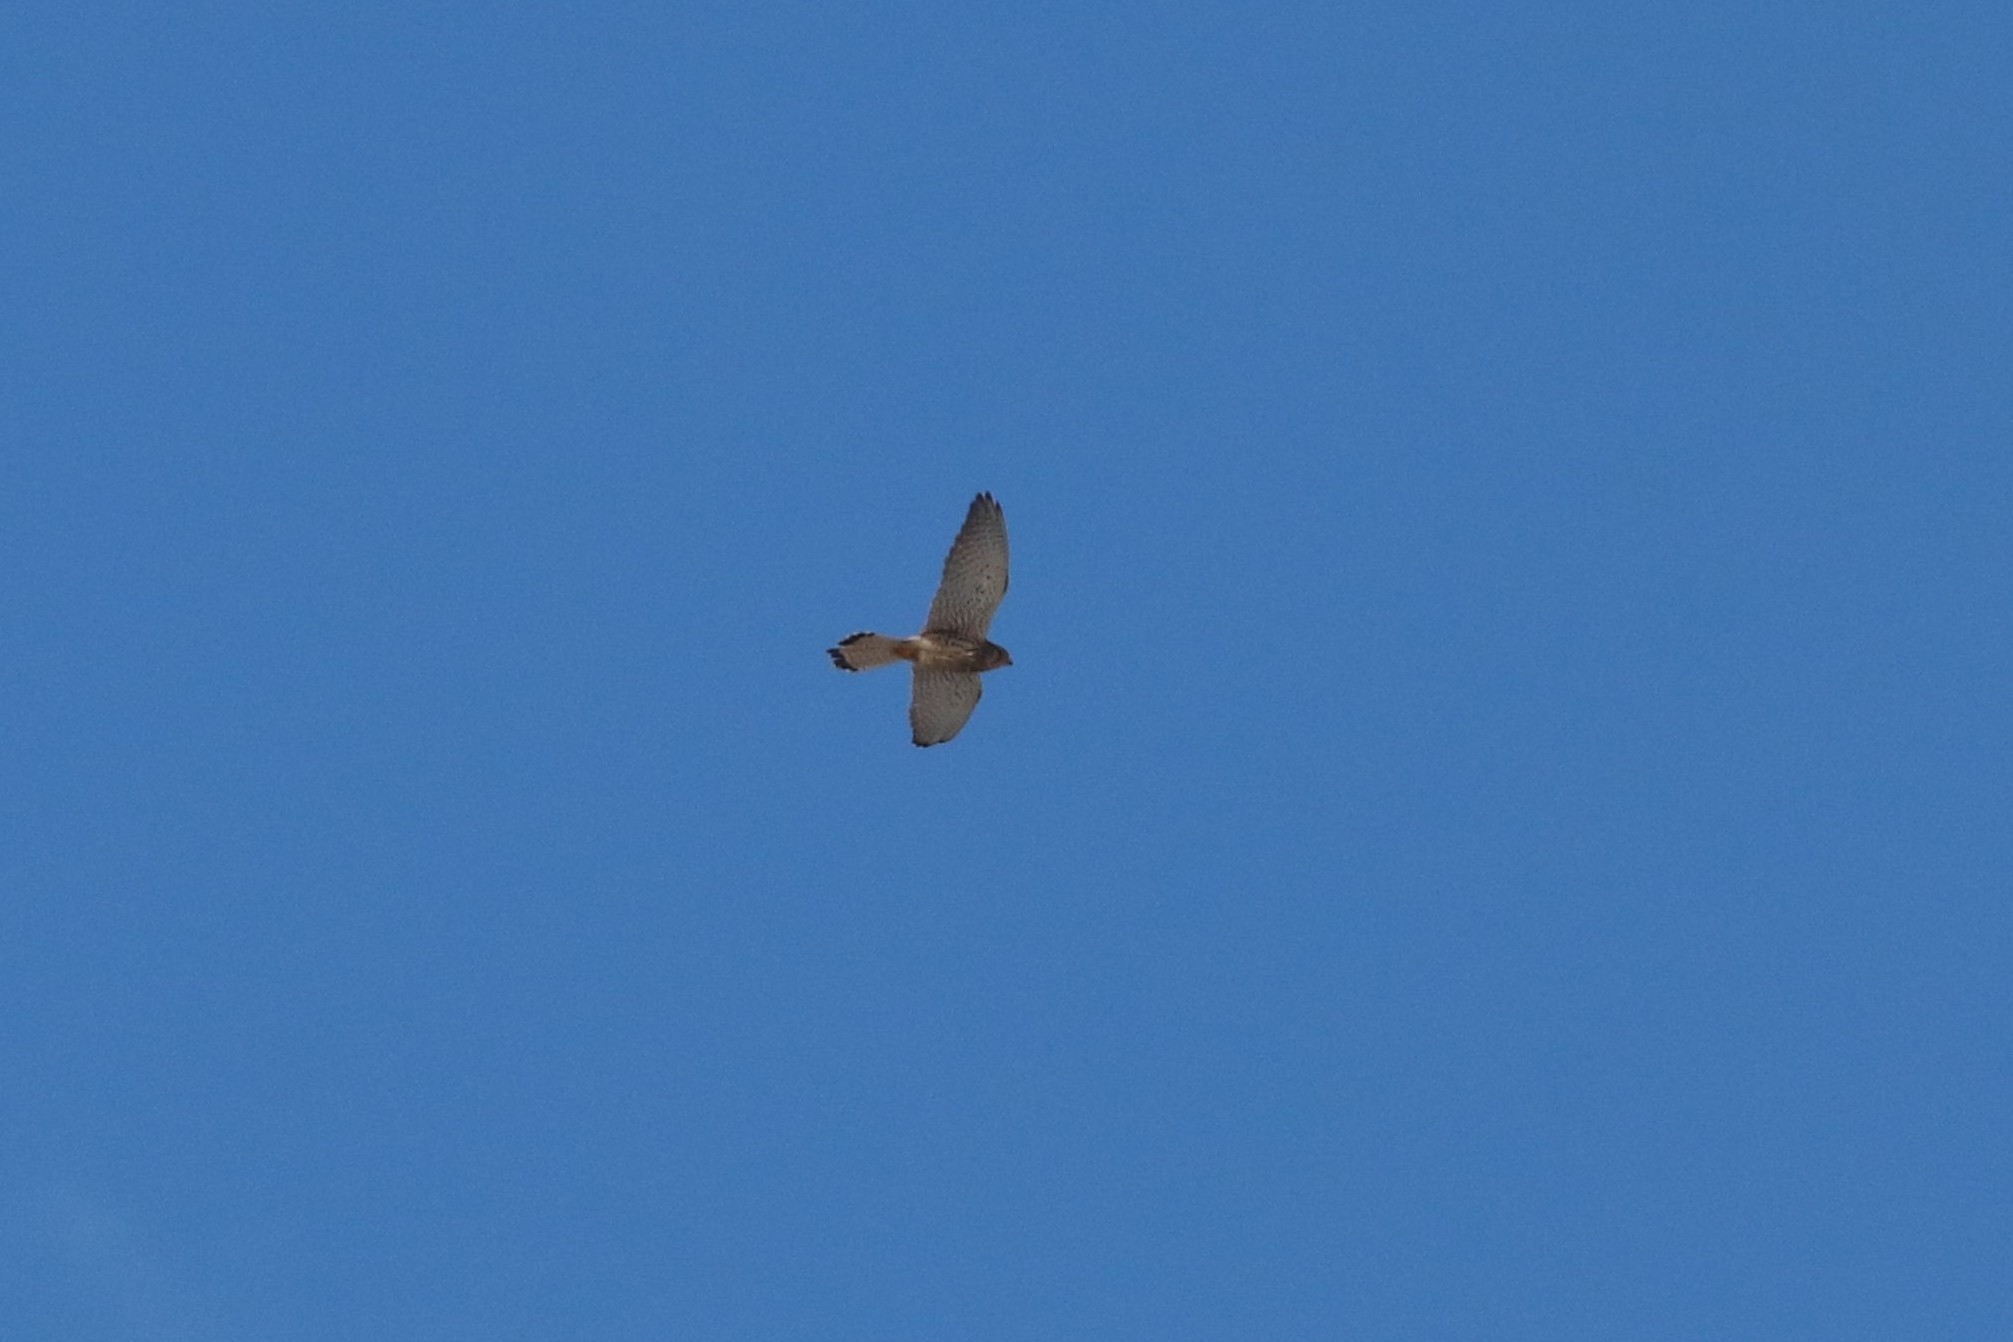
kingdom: Animalia
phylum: Chordata
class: Aves
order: Falconiformes
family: Falconidae
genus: Falco
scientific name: Falco tinnunculus
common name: Common kestrel
